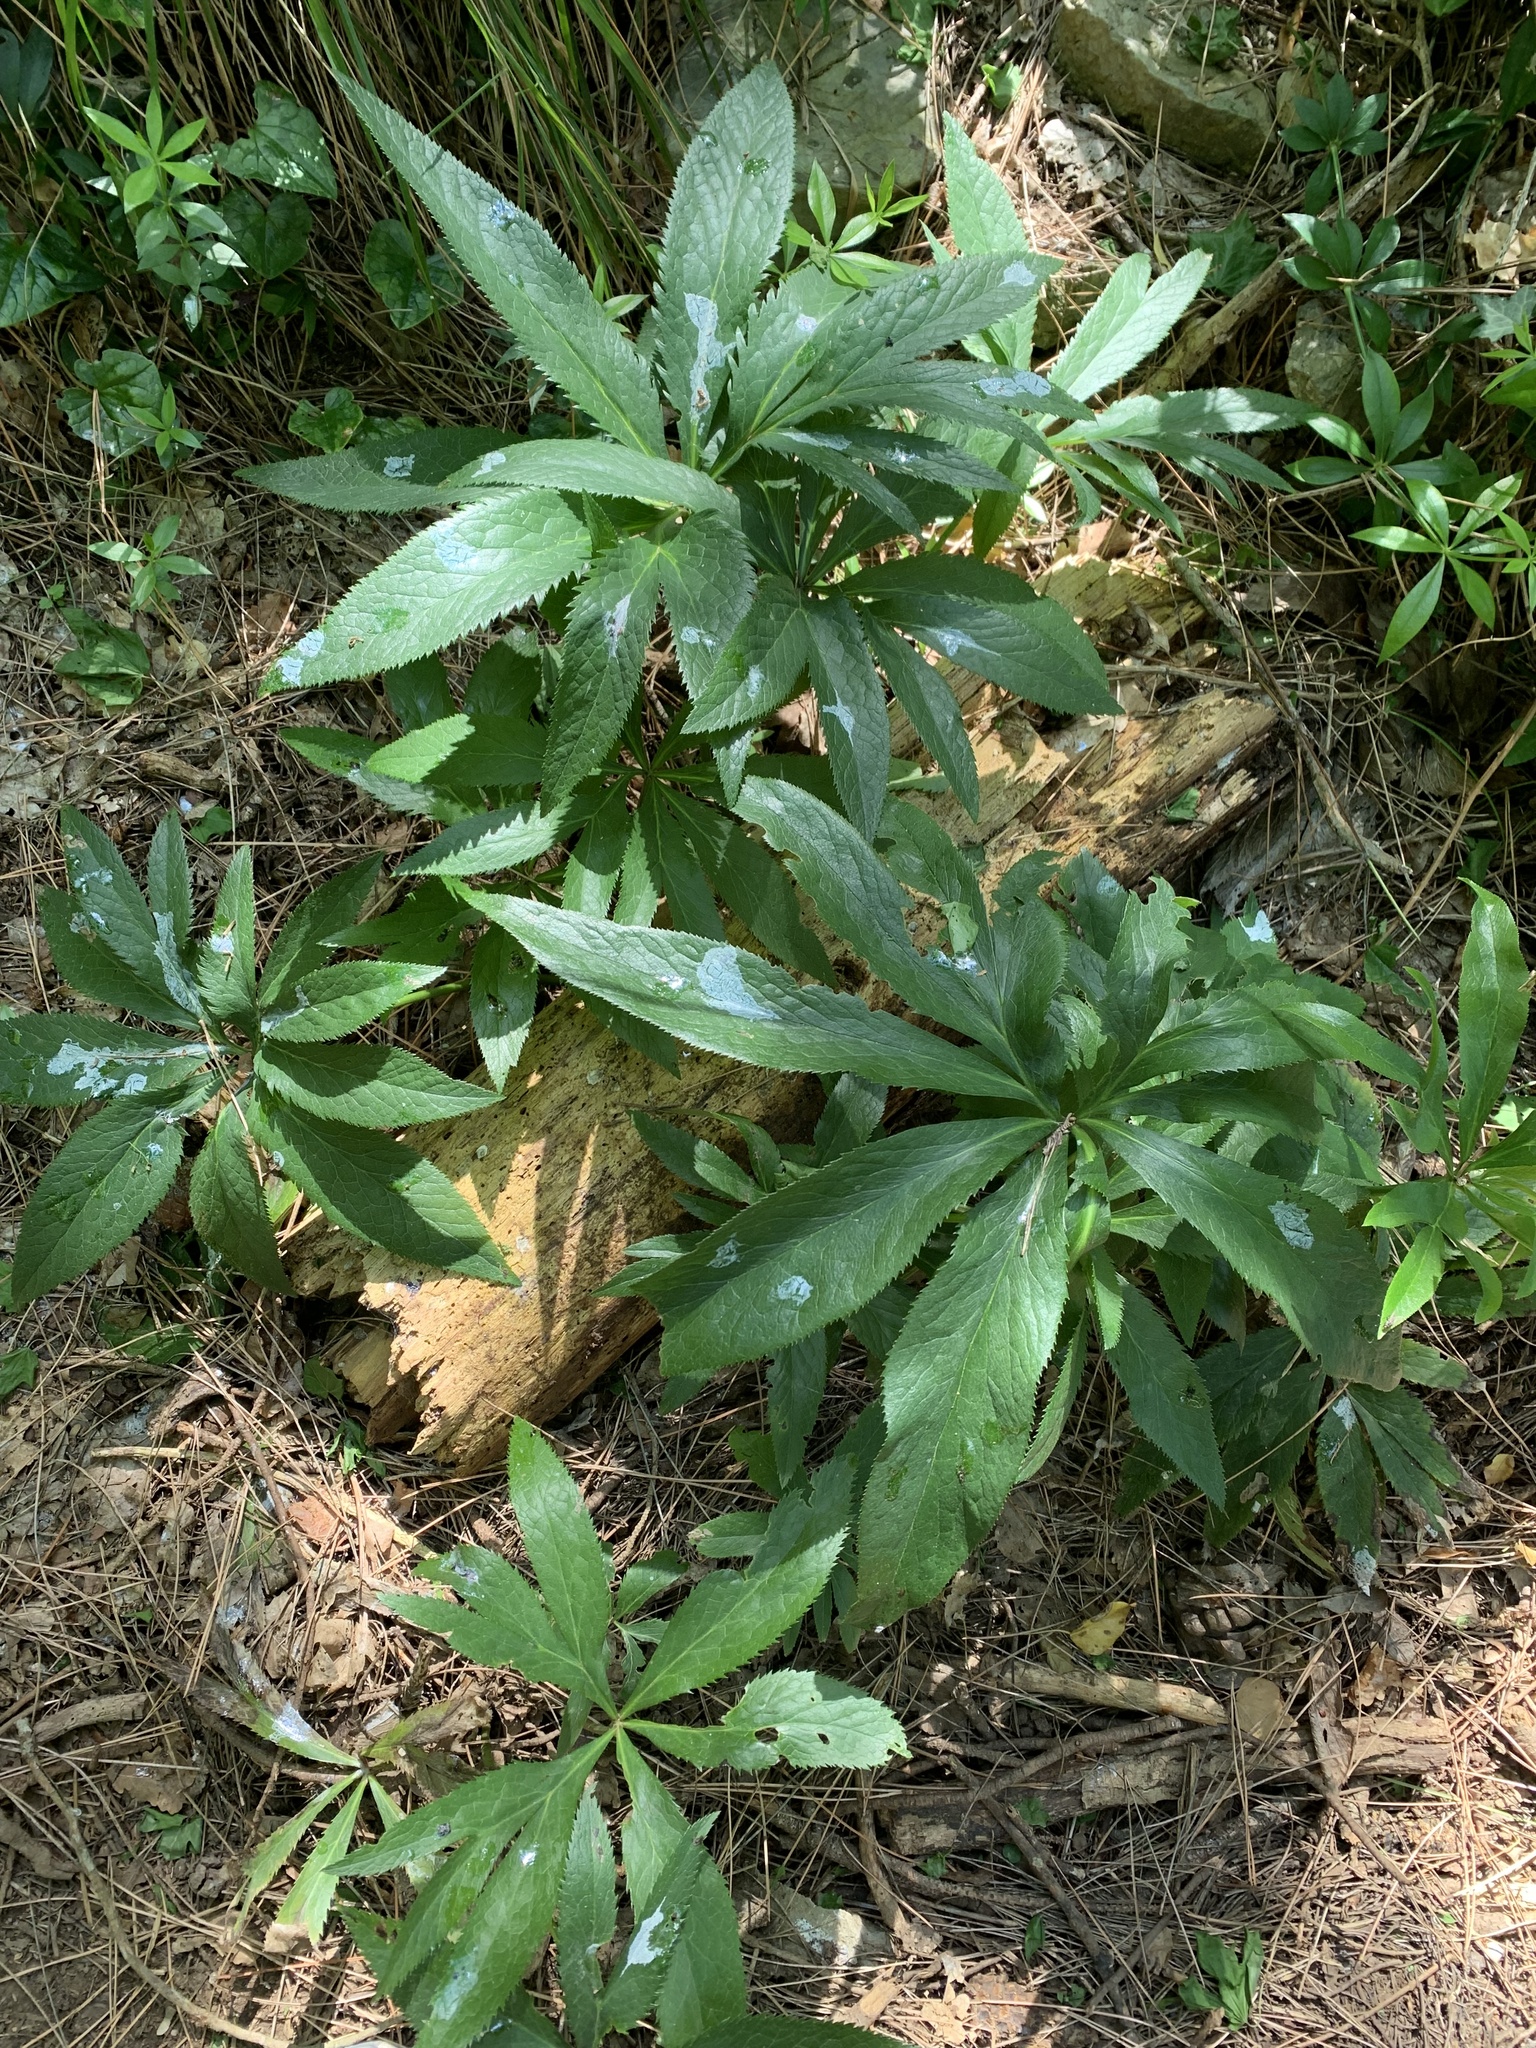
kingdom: Plantae
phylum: Tracheophyta
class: Magnoliopsida
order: Ranunculales
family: Ranunculaceae
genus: Helleborus
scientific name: Helleborus viridis
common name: Green hellebore
